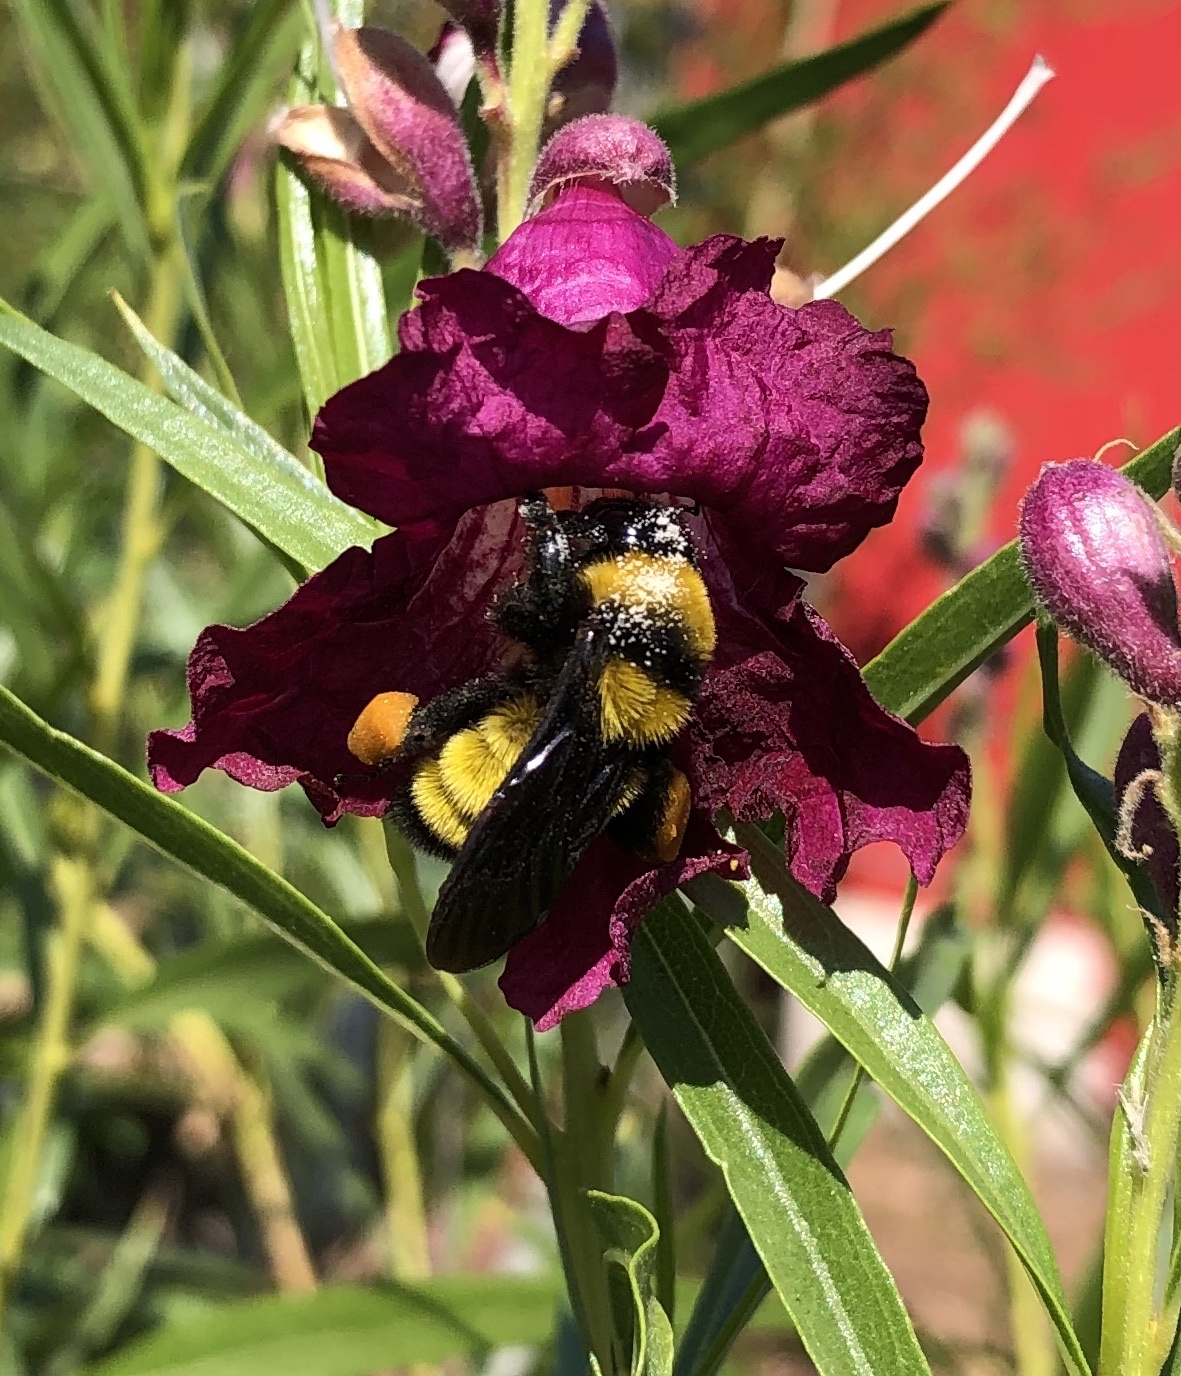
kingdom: Animalia
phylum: Arthropoda
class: Insecta
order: Hymenoptera
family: Apidae
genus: Bombus
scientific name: Bombus sonorus
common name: Sonoran bumble bee
